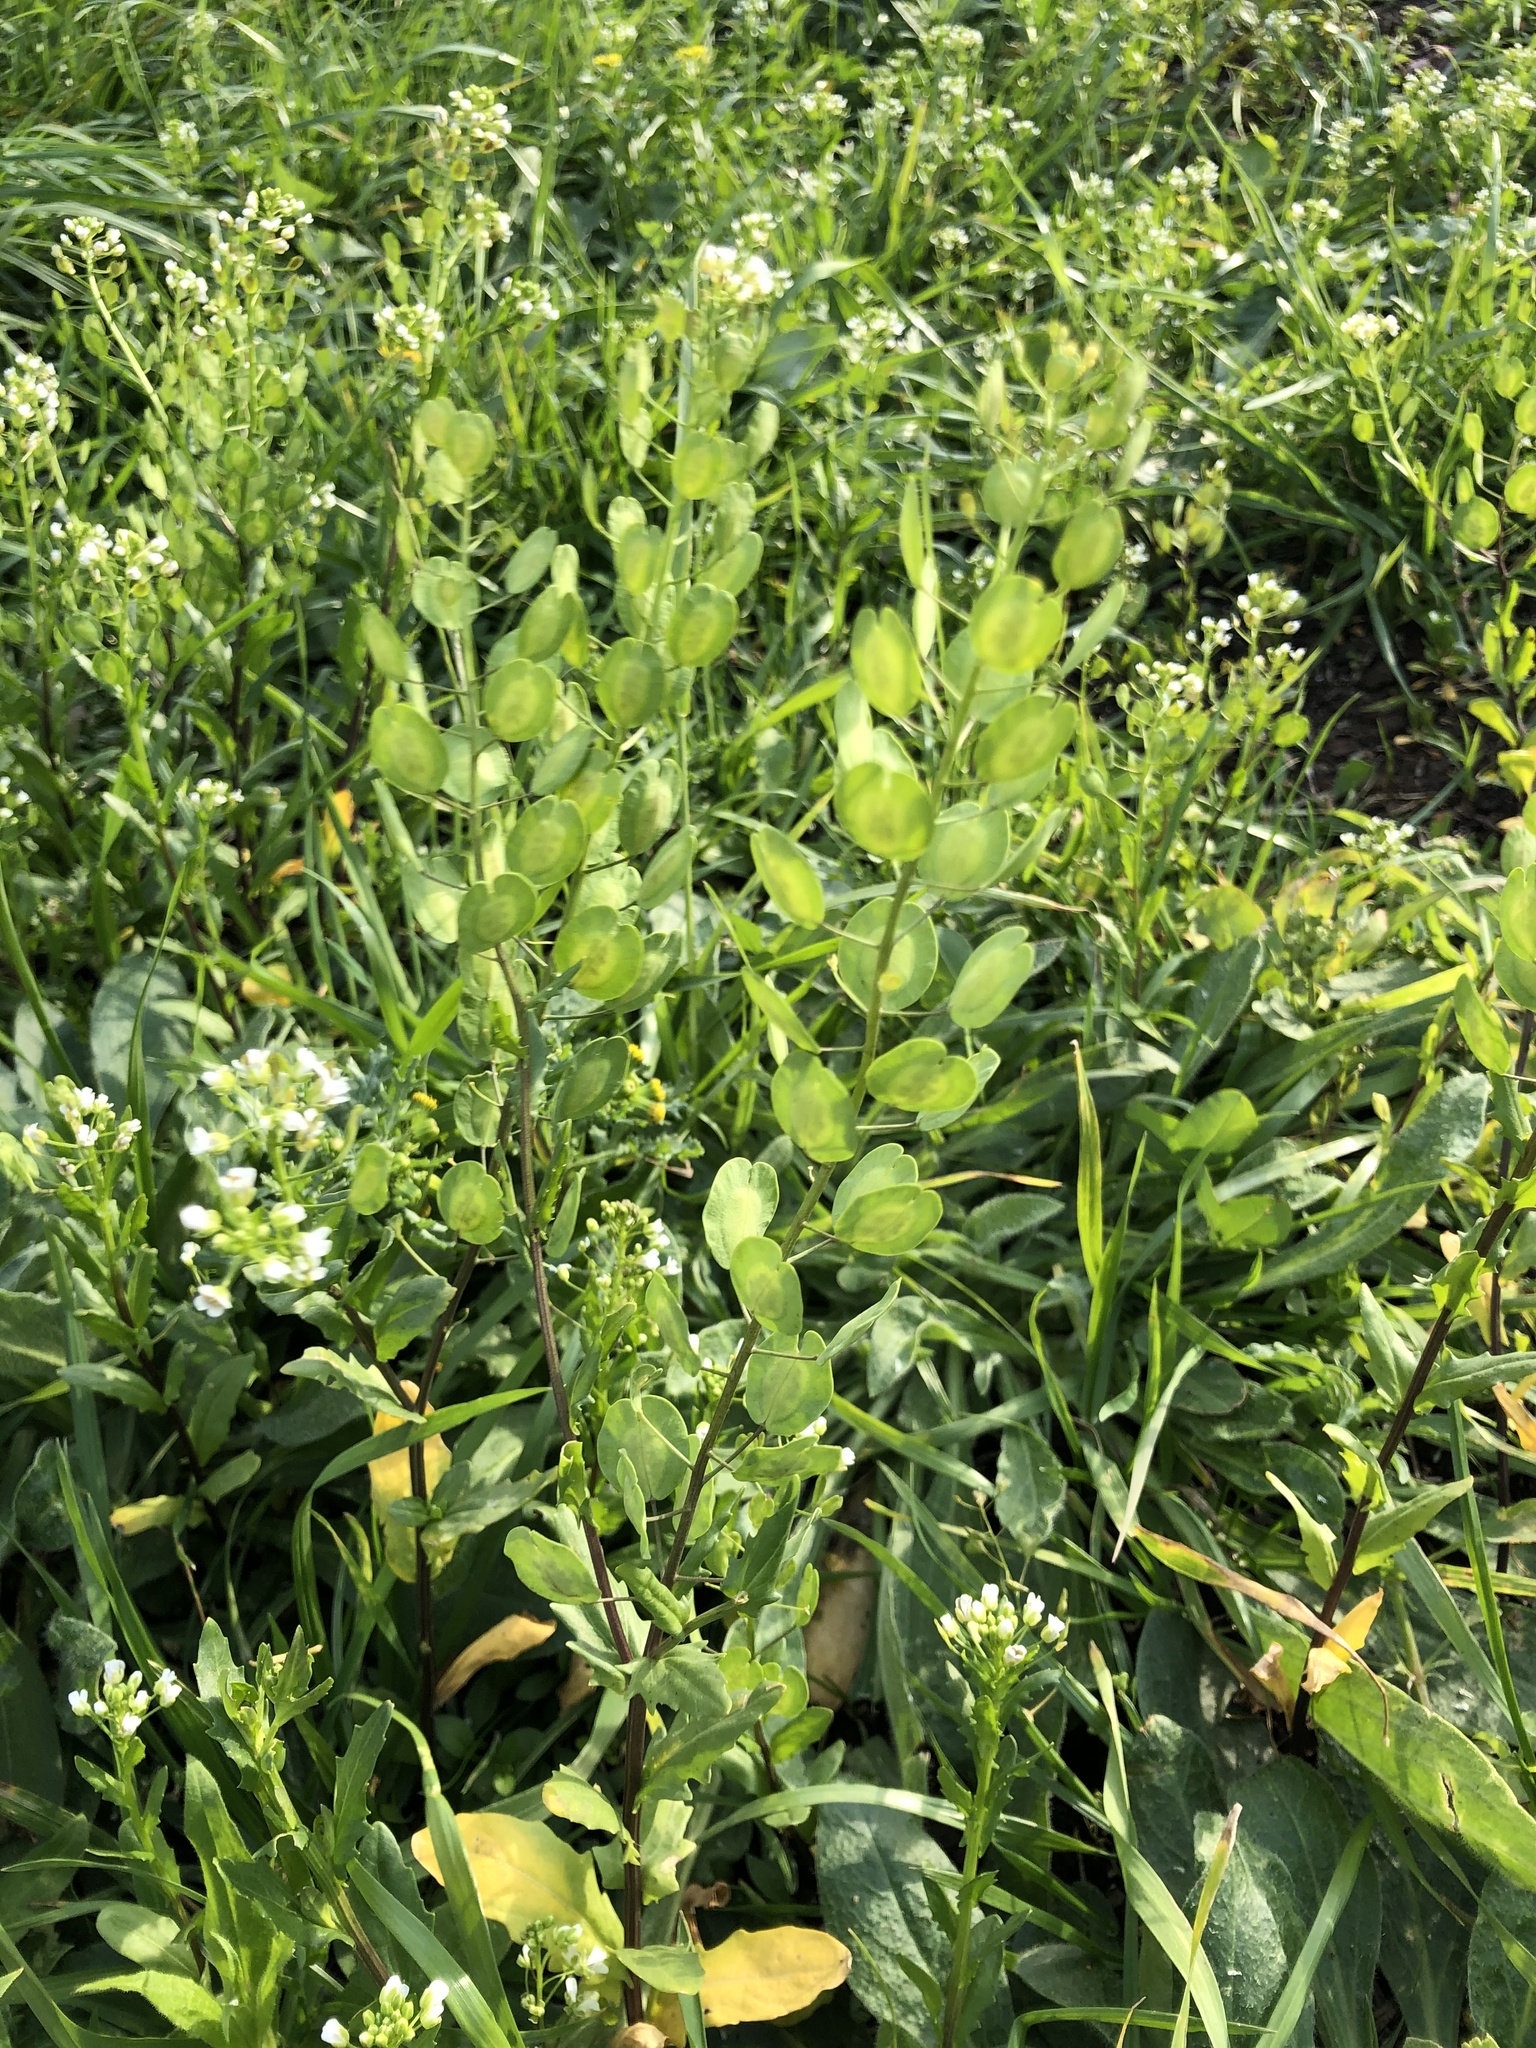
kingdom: Plantae
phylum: Tracheophyta
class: Magnoliopsida
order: Brassicales
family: Brassicaceae
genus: Thlaspi
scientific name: Thlaspi arvense
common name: Field pennycress
